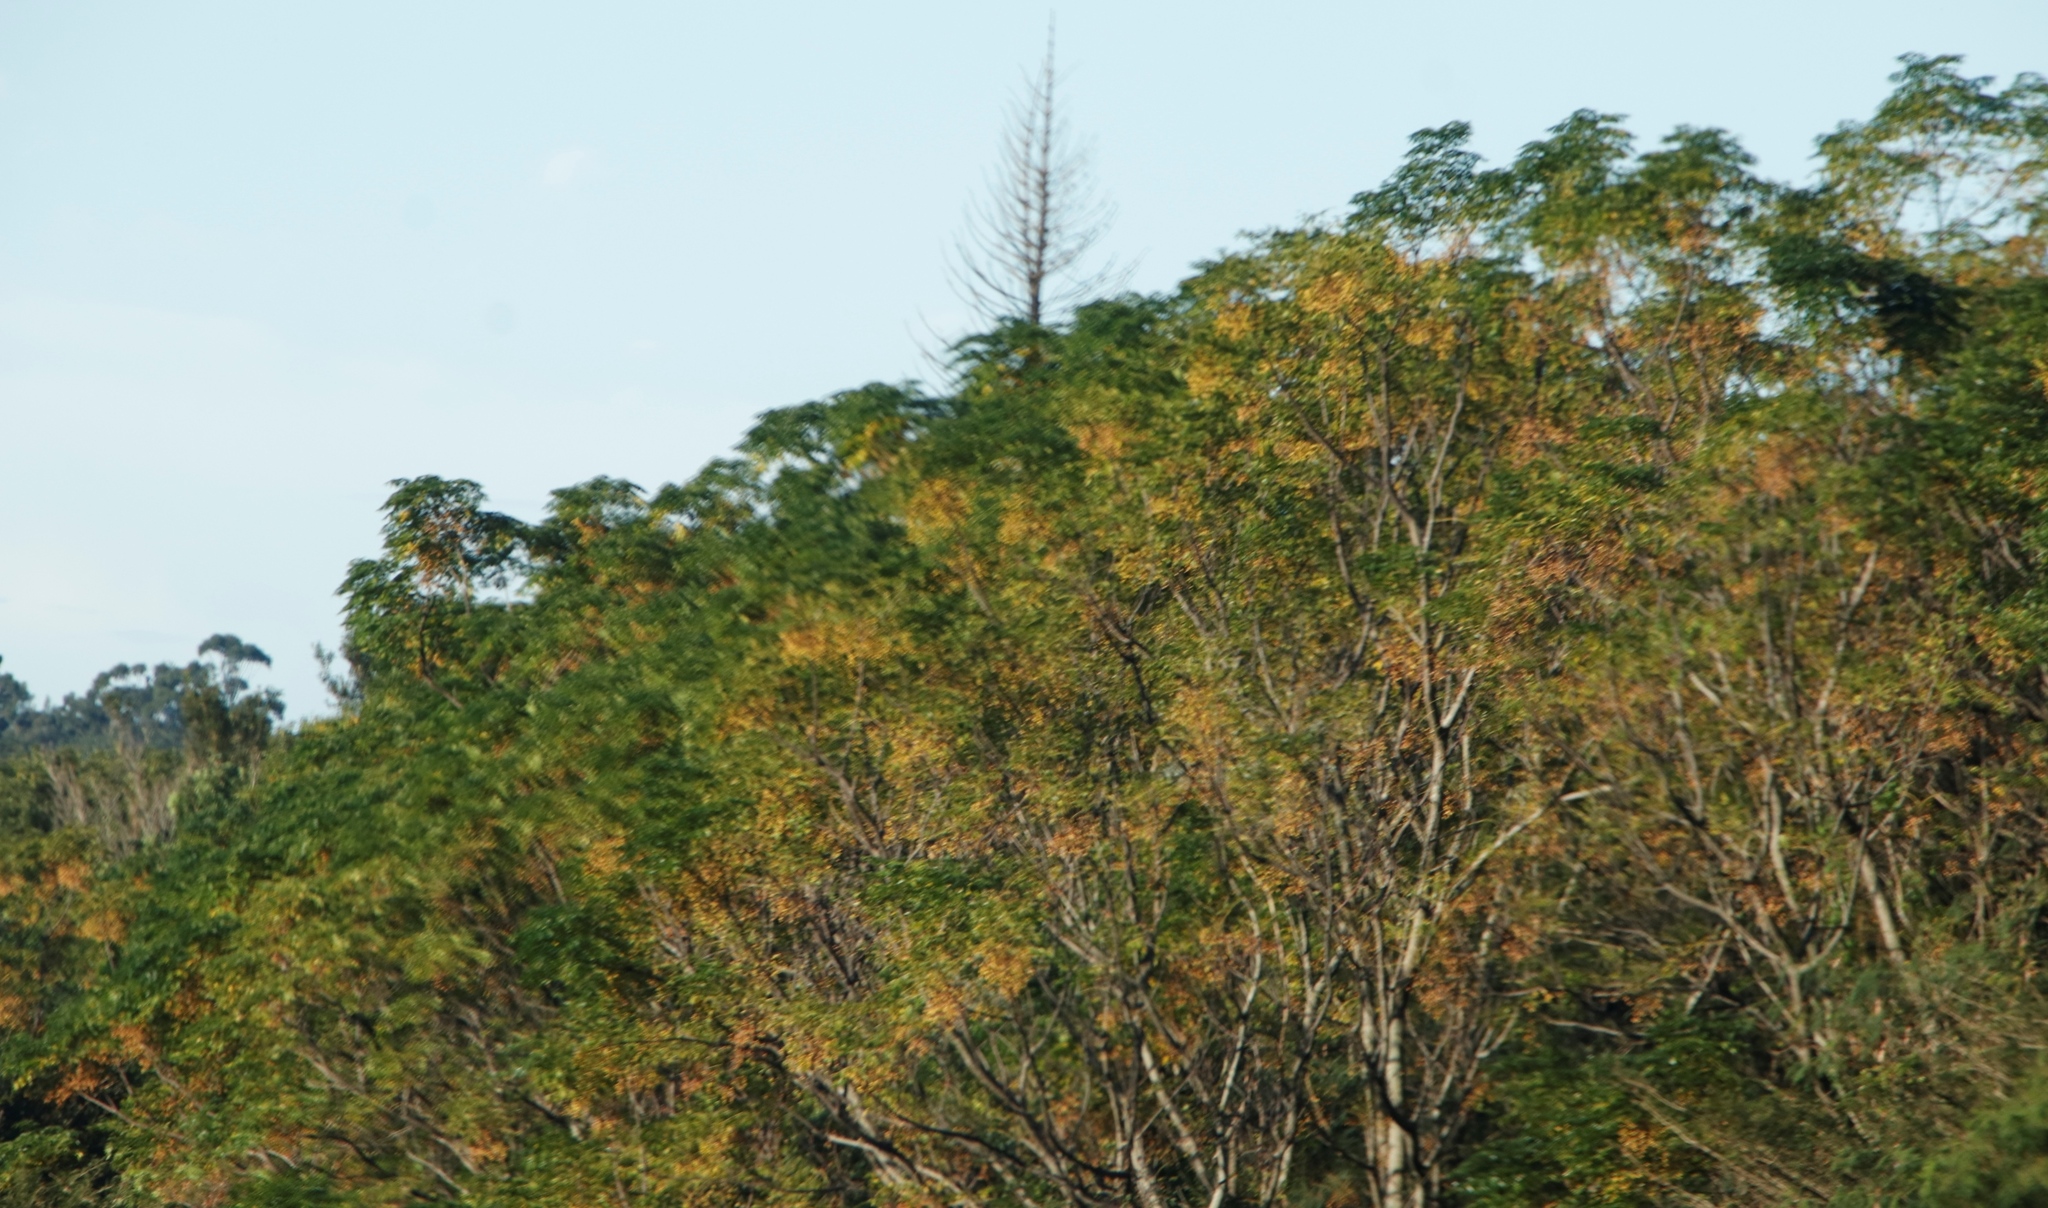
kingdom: Plantae
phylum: Tracheophyta
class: Magnoliopsida
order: Sapindales
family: Meliaceae
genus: Melia
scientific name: Melia azedarach
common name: Chinaberrytree
